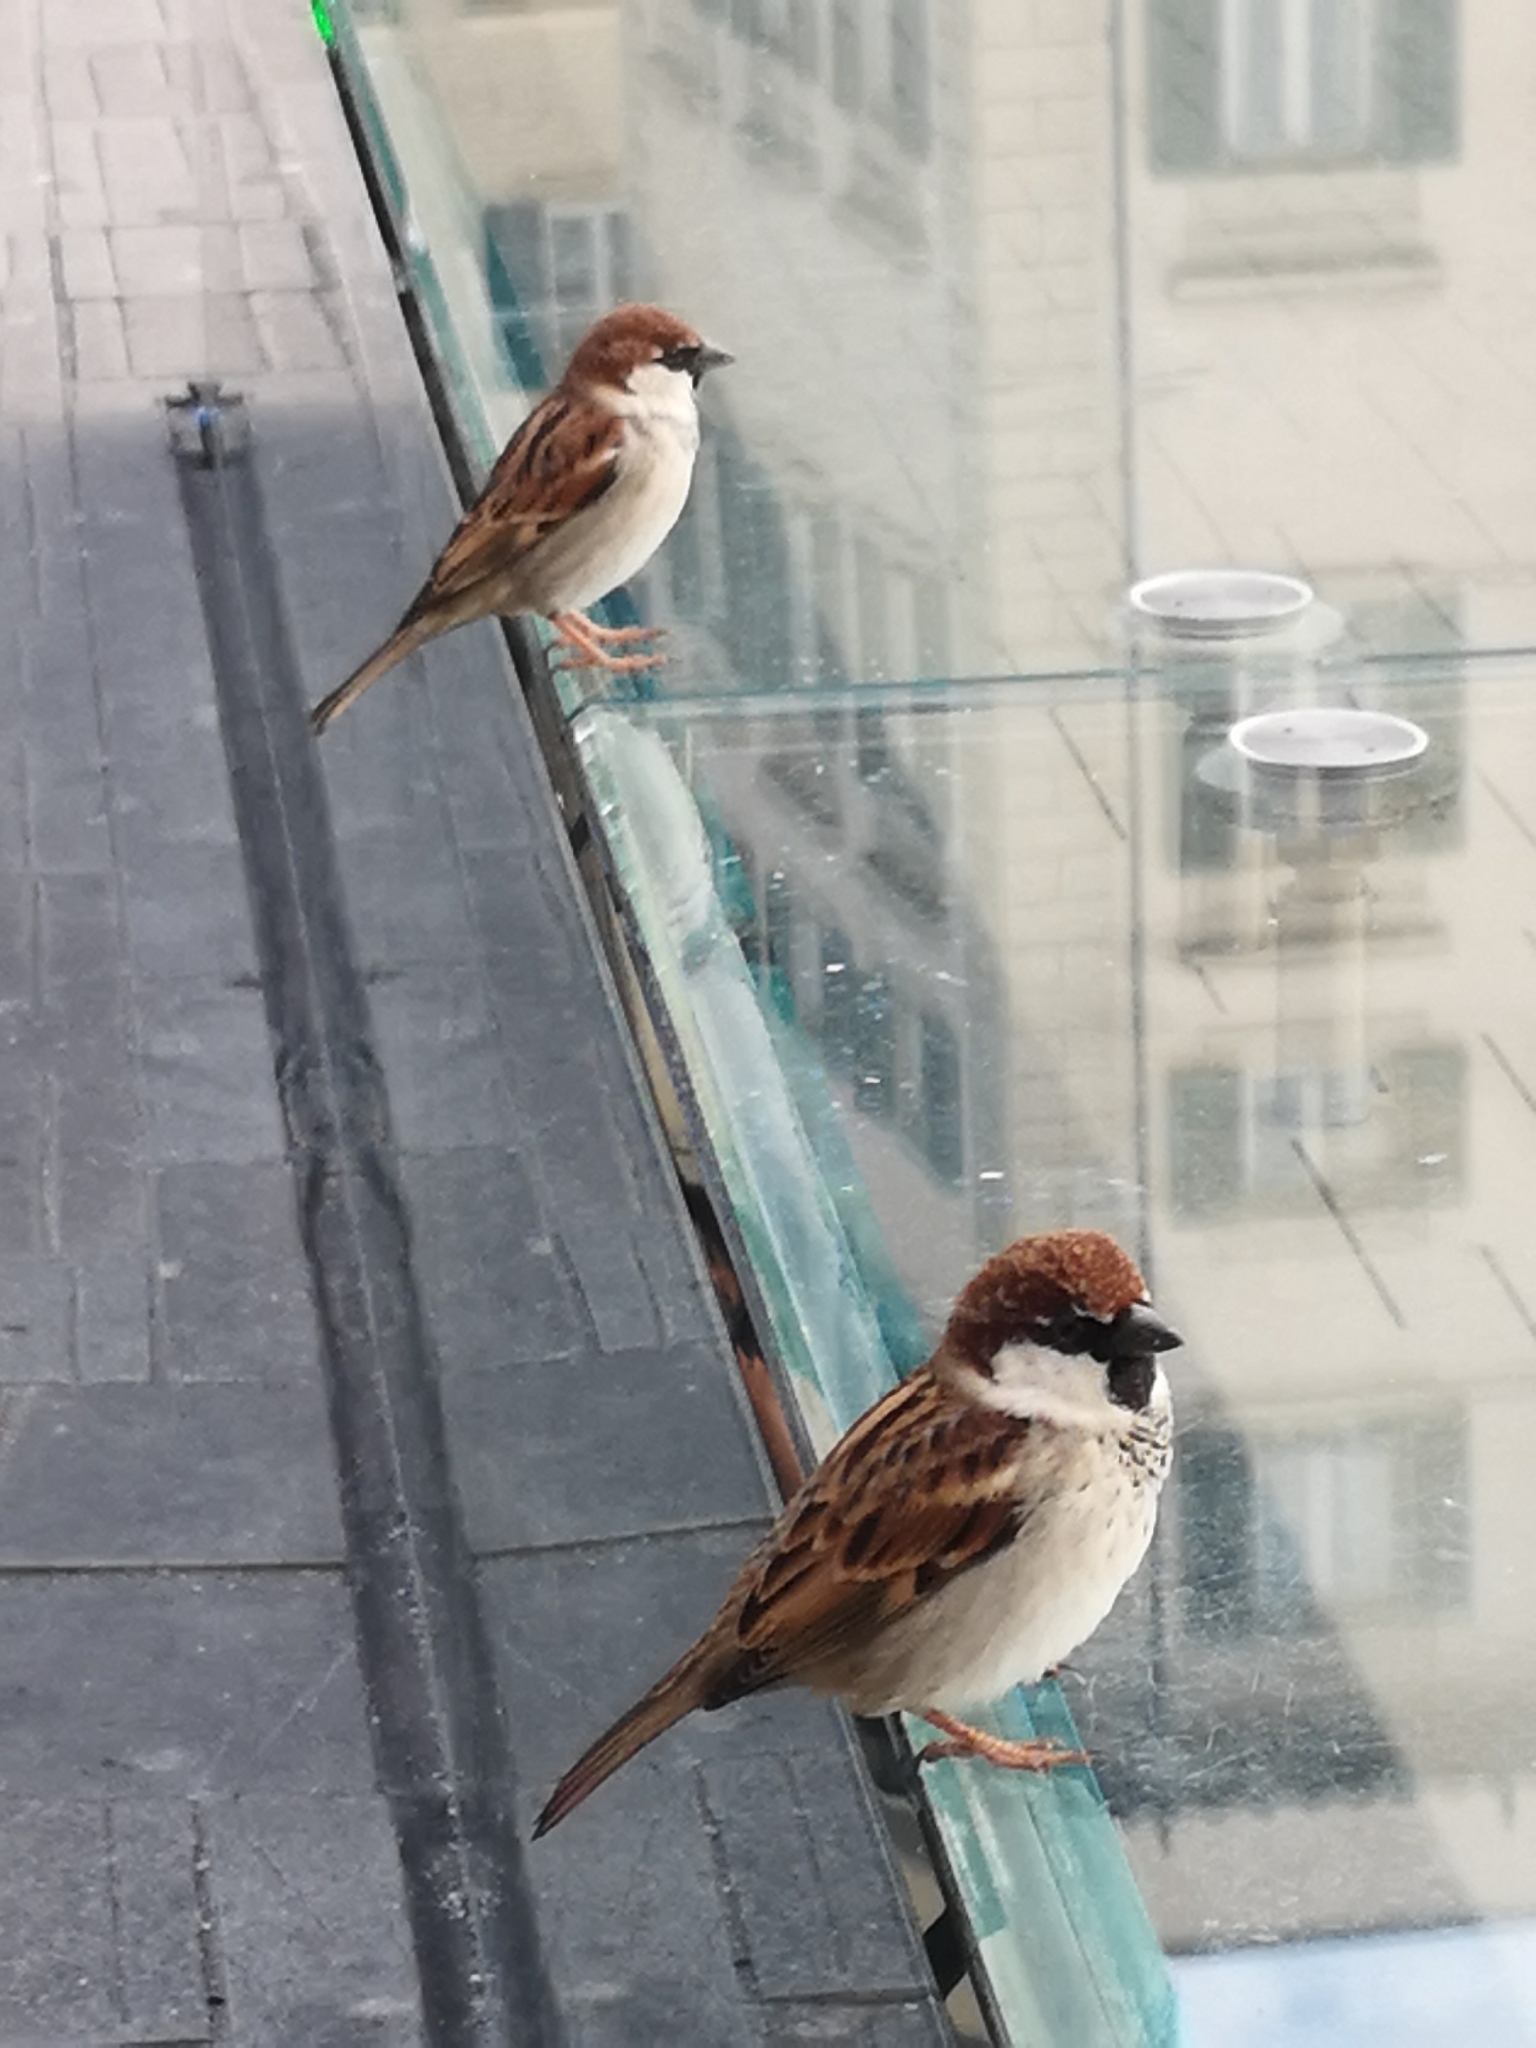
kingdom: Animalia
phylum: Chordata
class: Aves
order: Passeriformes
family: Passeridae
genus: Passer
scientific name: Passer italiae
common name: Italian sparrow
